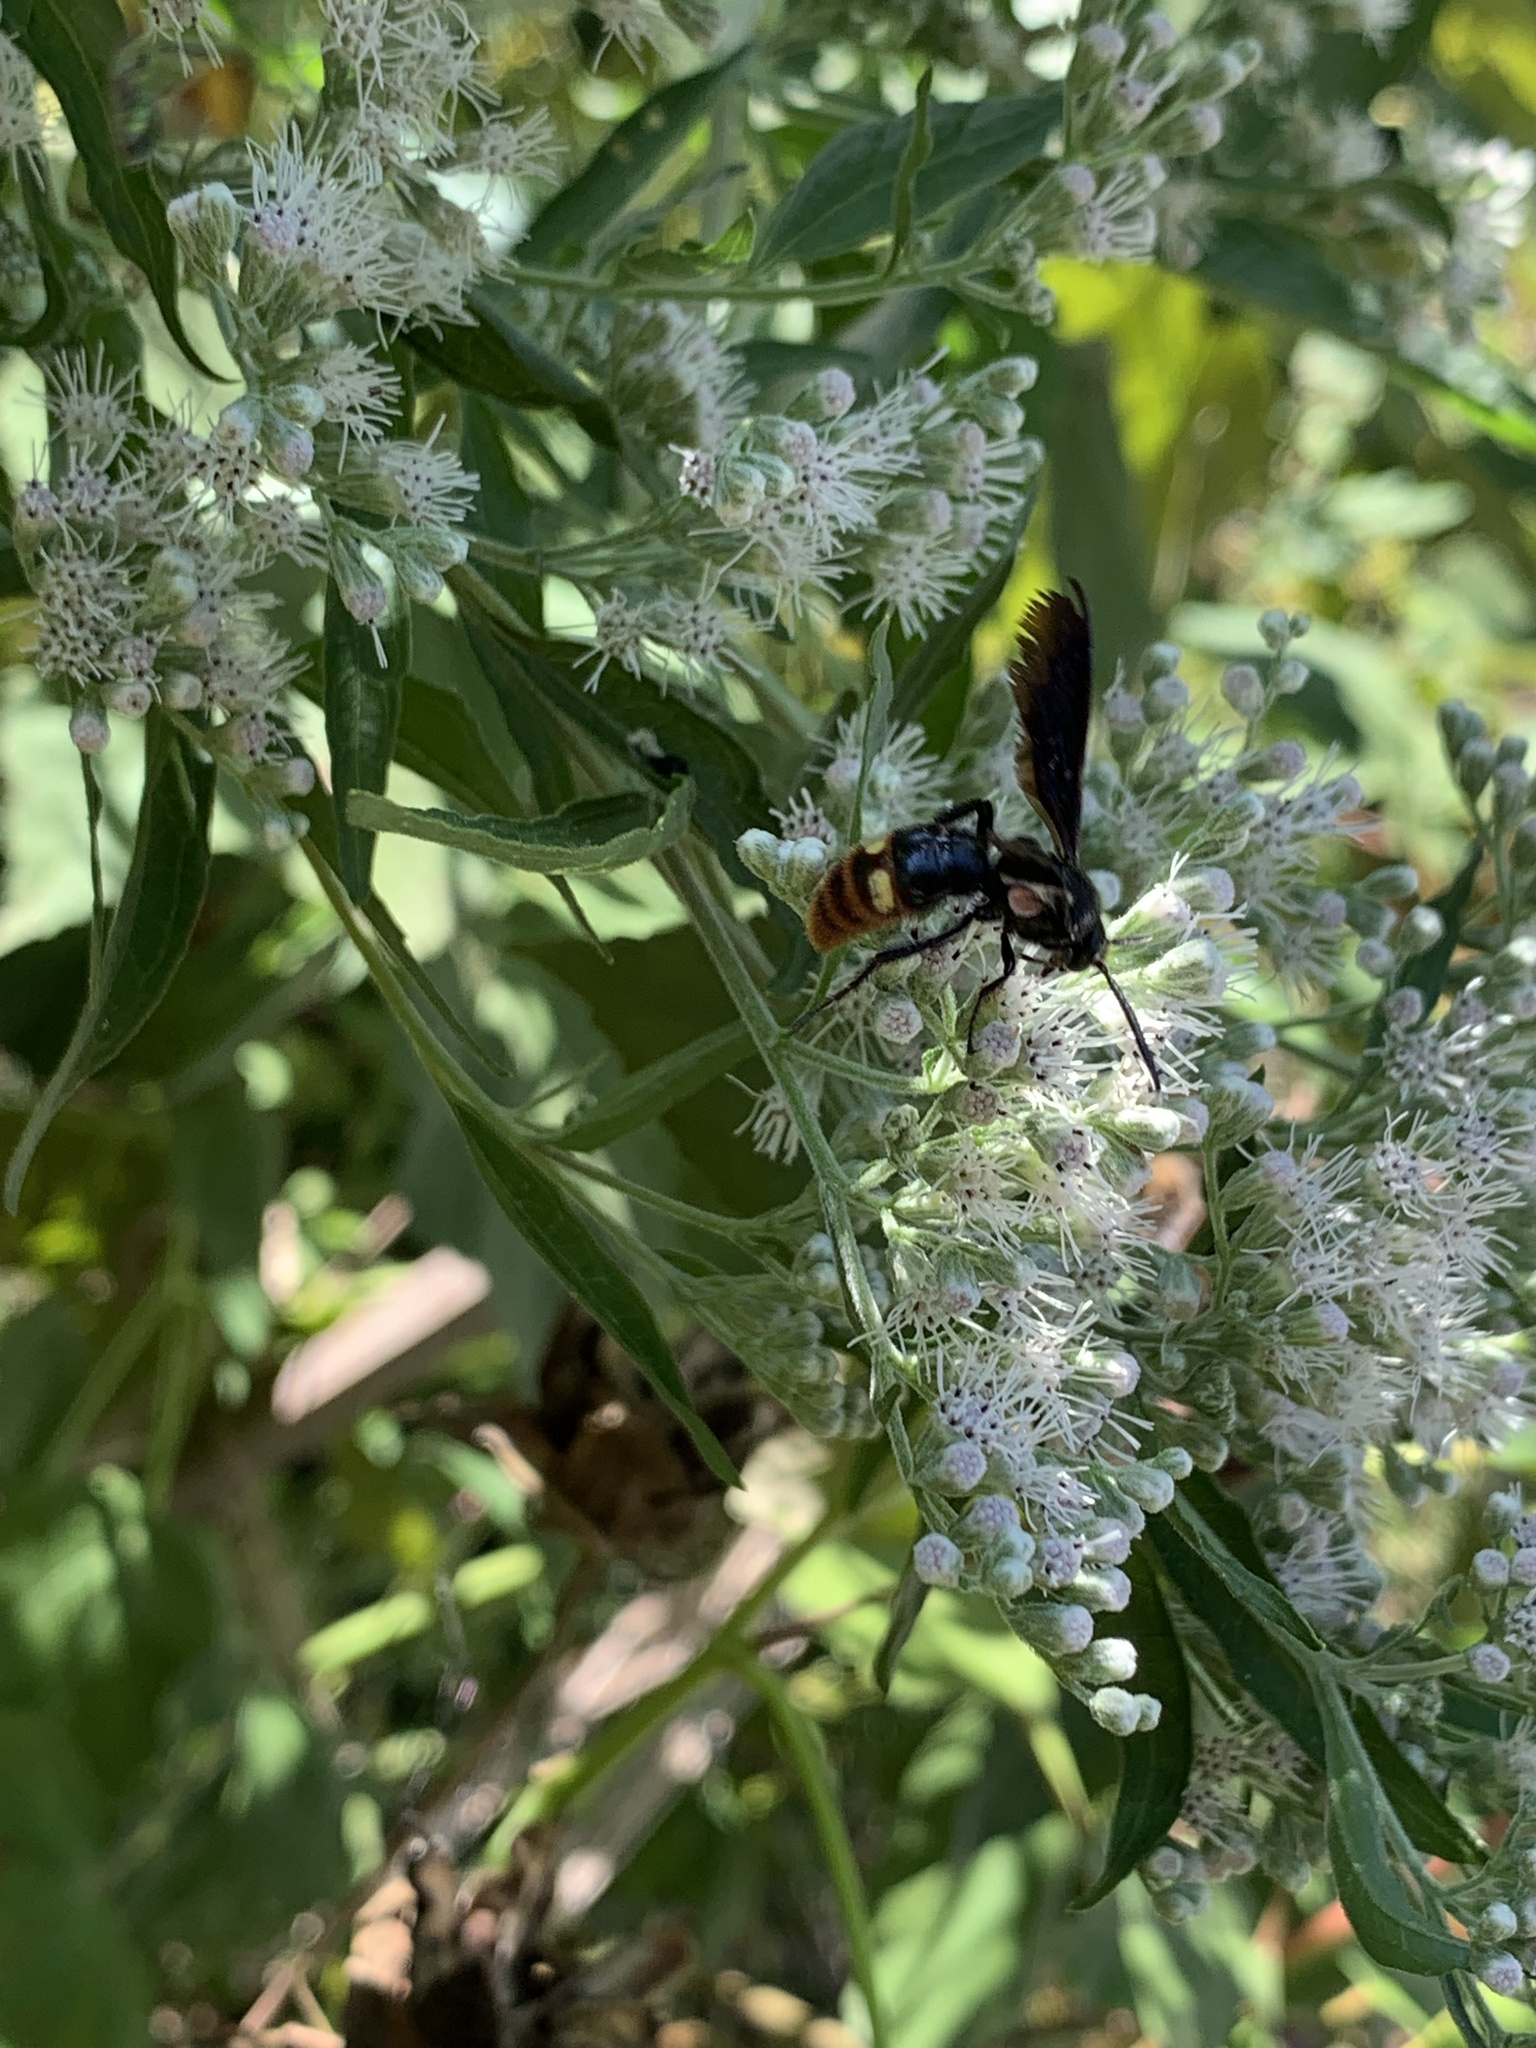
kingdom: Animalia
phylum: Arthropoda
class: Insecta
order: Hymenoptera
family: Scoliidae
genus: Scolia
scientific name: Scolia dubia
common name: Blue-winged scoliid wasp
